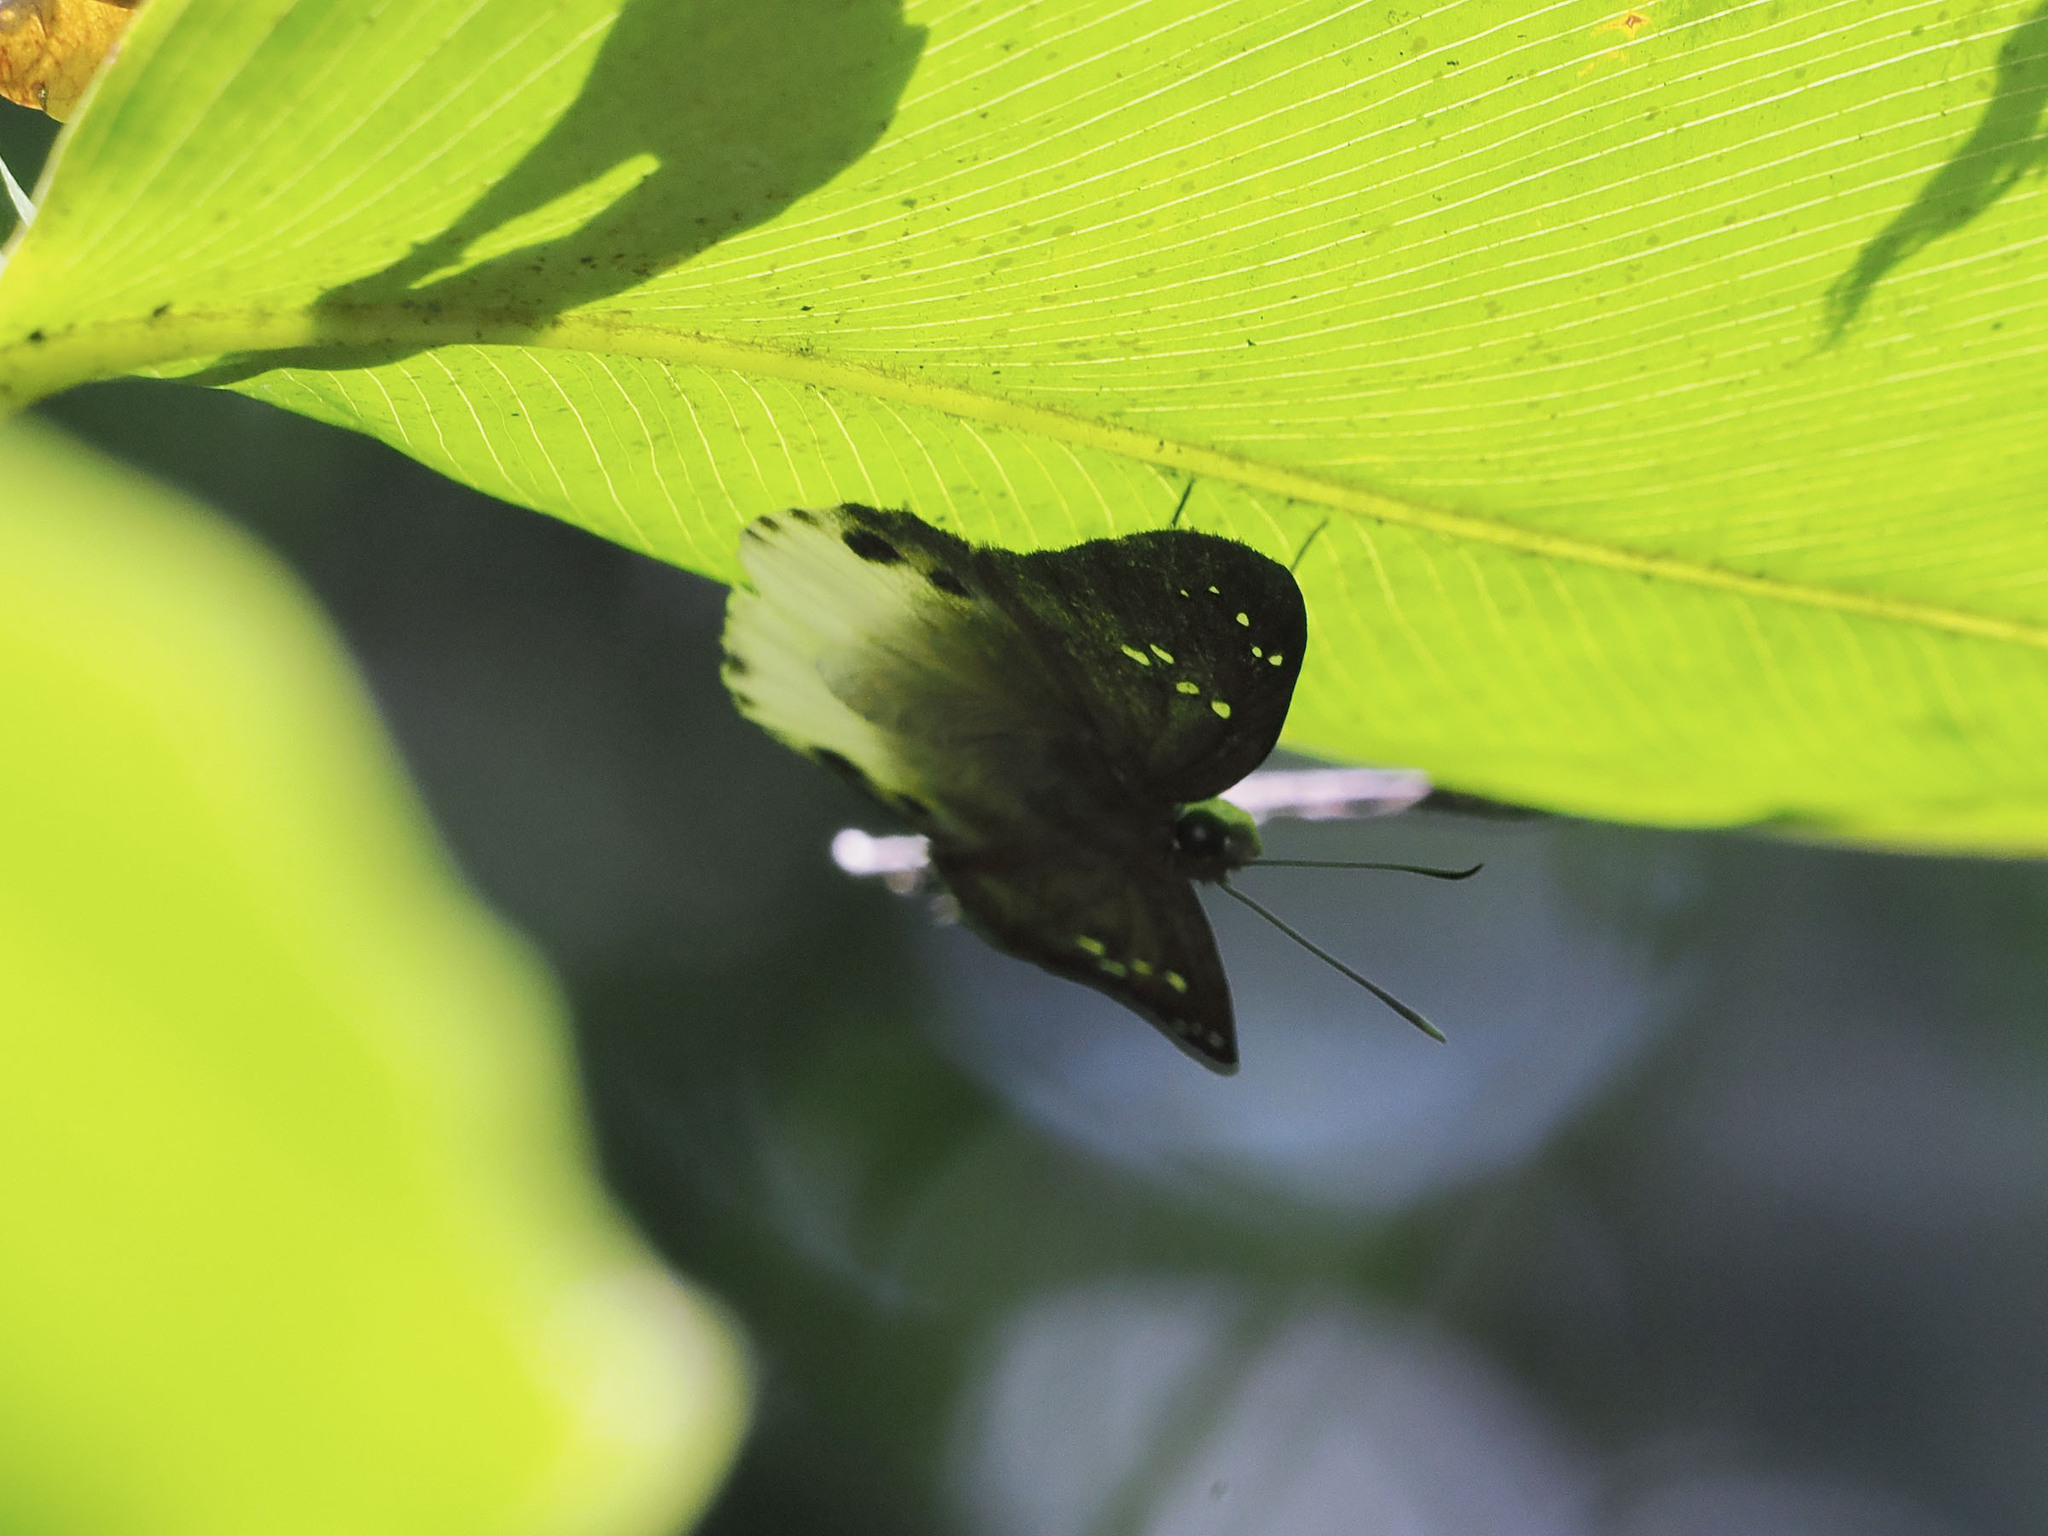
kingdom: Animalia
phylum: Arthropoda
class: Insecta
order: Lepidoptera
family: Hesperiidae
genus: Tagiades
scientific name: Tagiades japetus
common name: Pied flat
